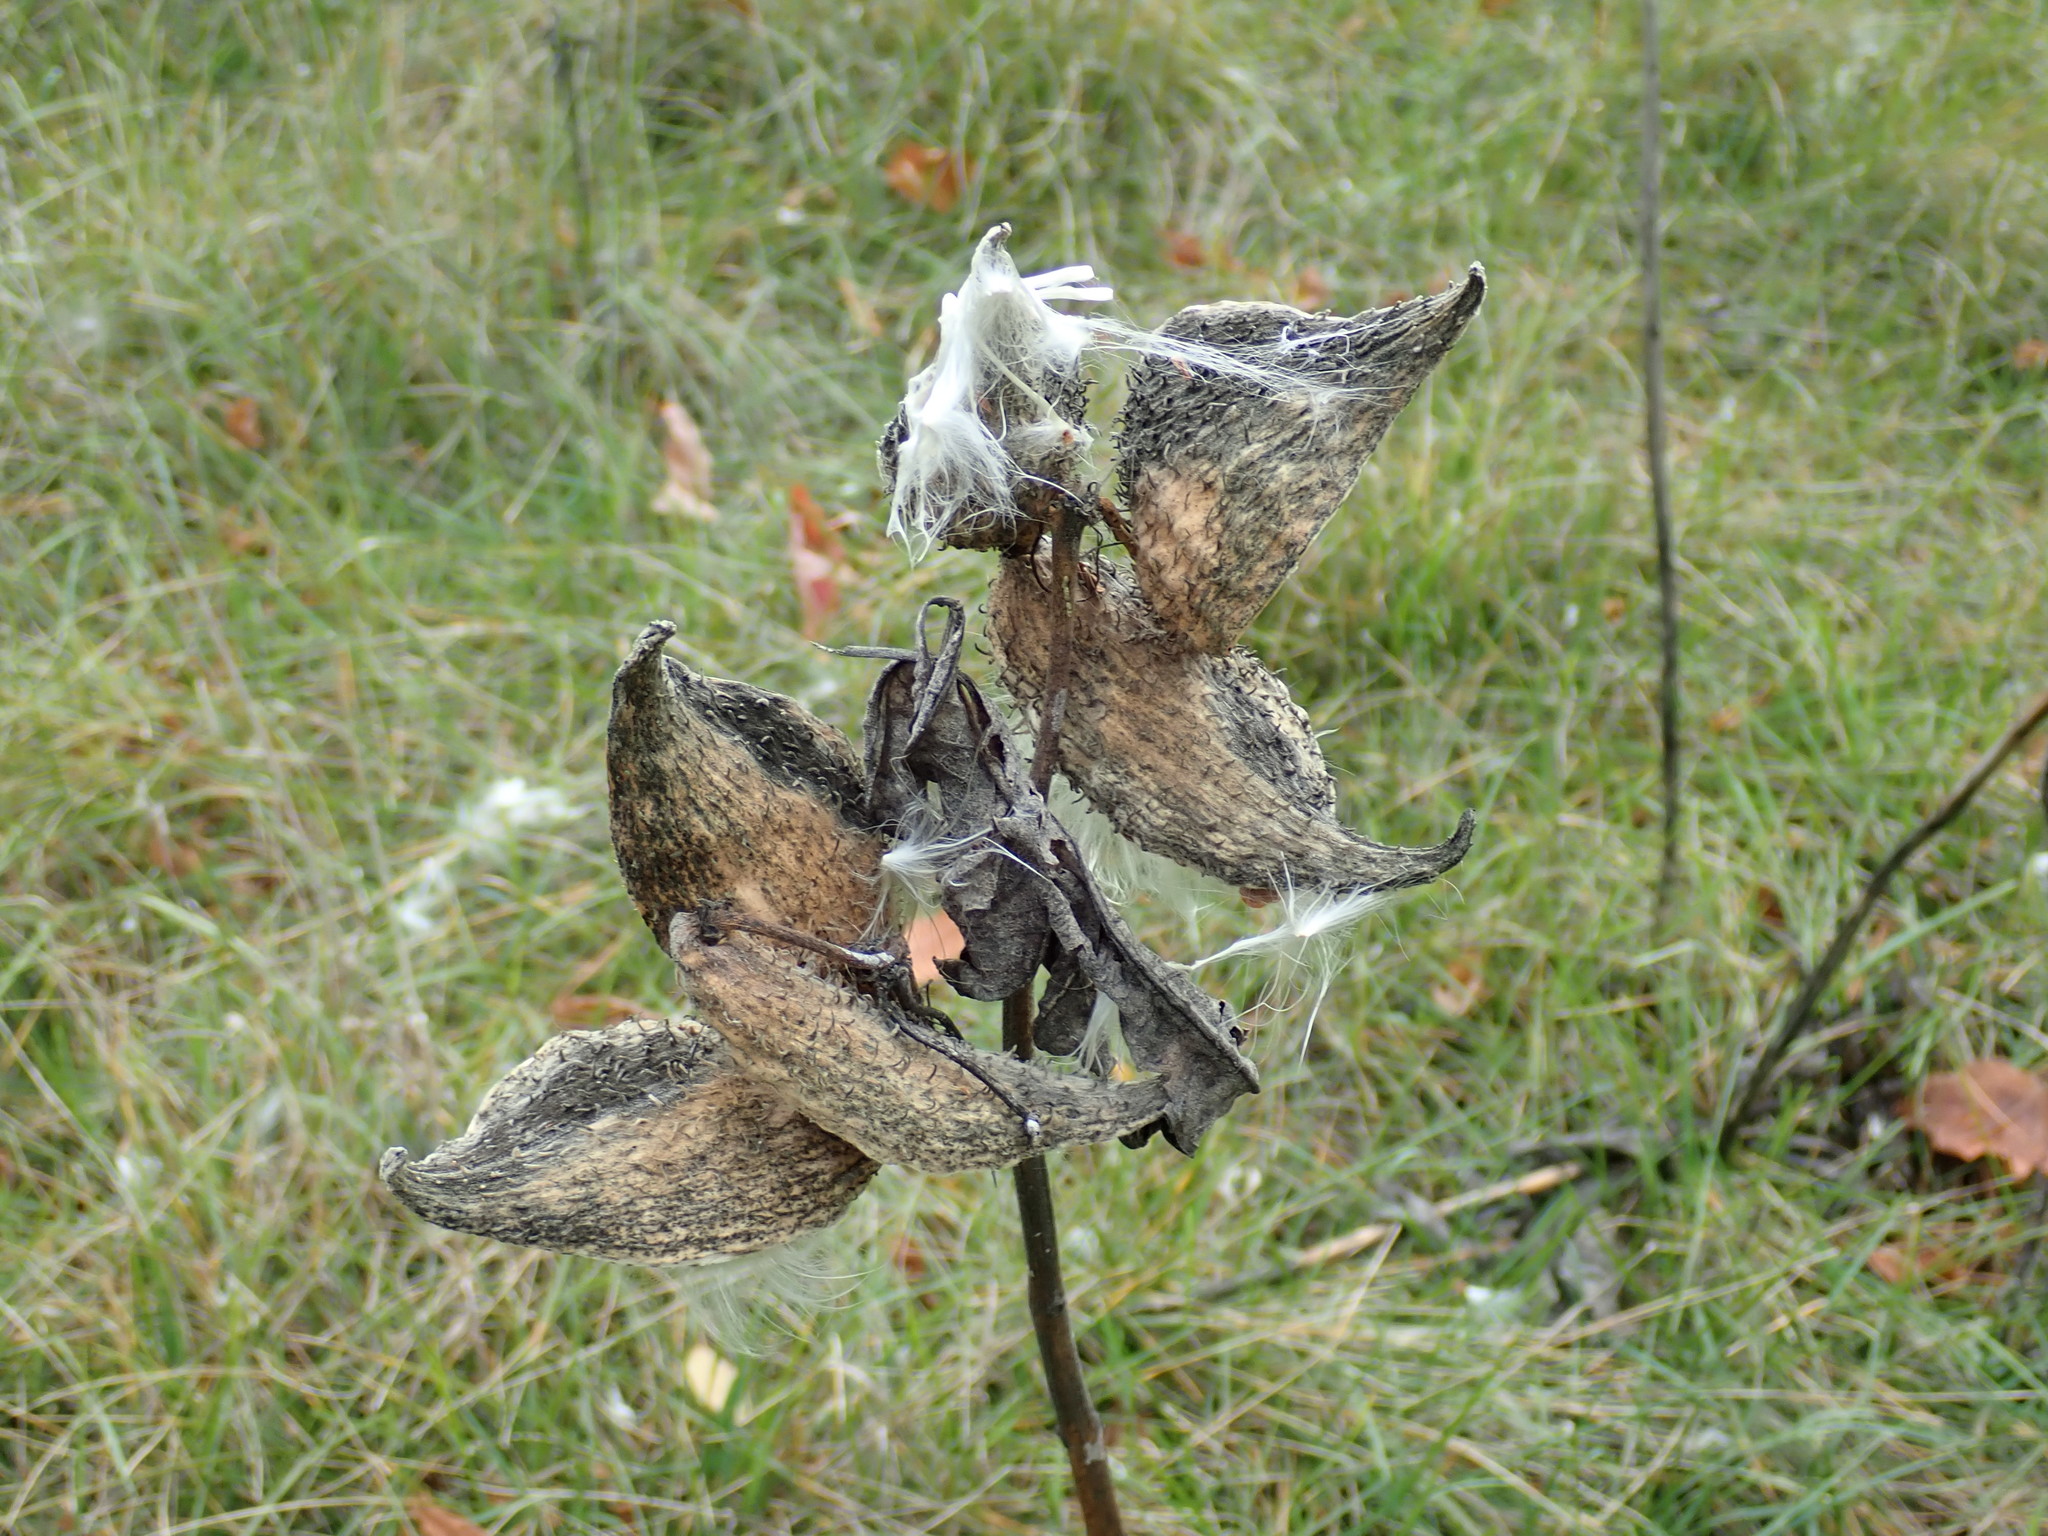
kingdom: Plantae
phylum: Tracheophyta
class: Magnoliopsida
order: Gentianales
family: Apocynaceae
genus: Asclepias
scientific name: Asclepias syriaca
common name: Common milkweed
